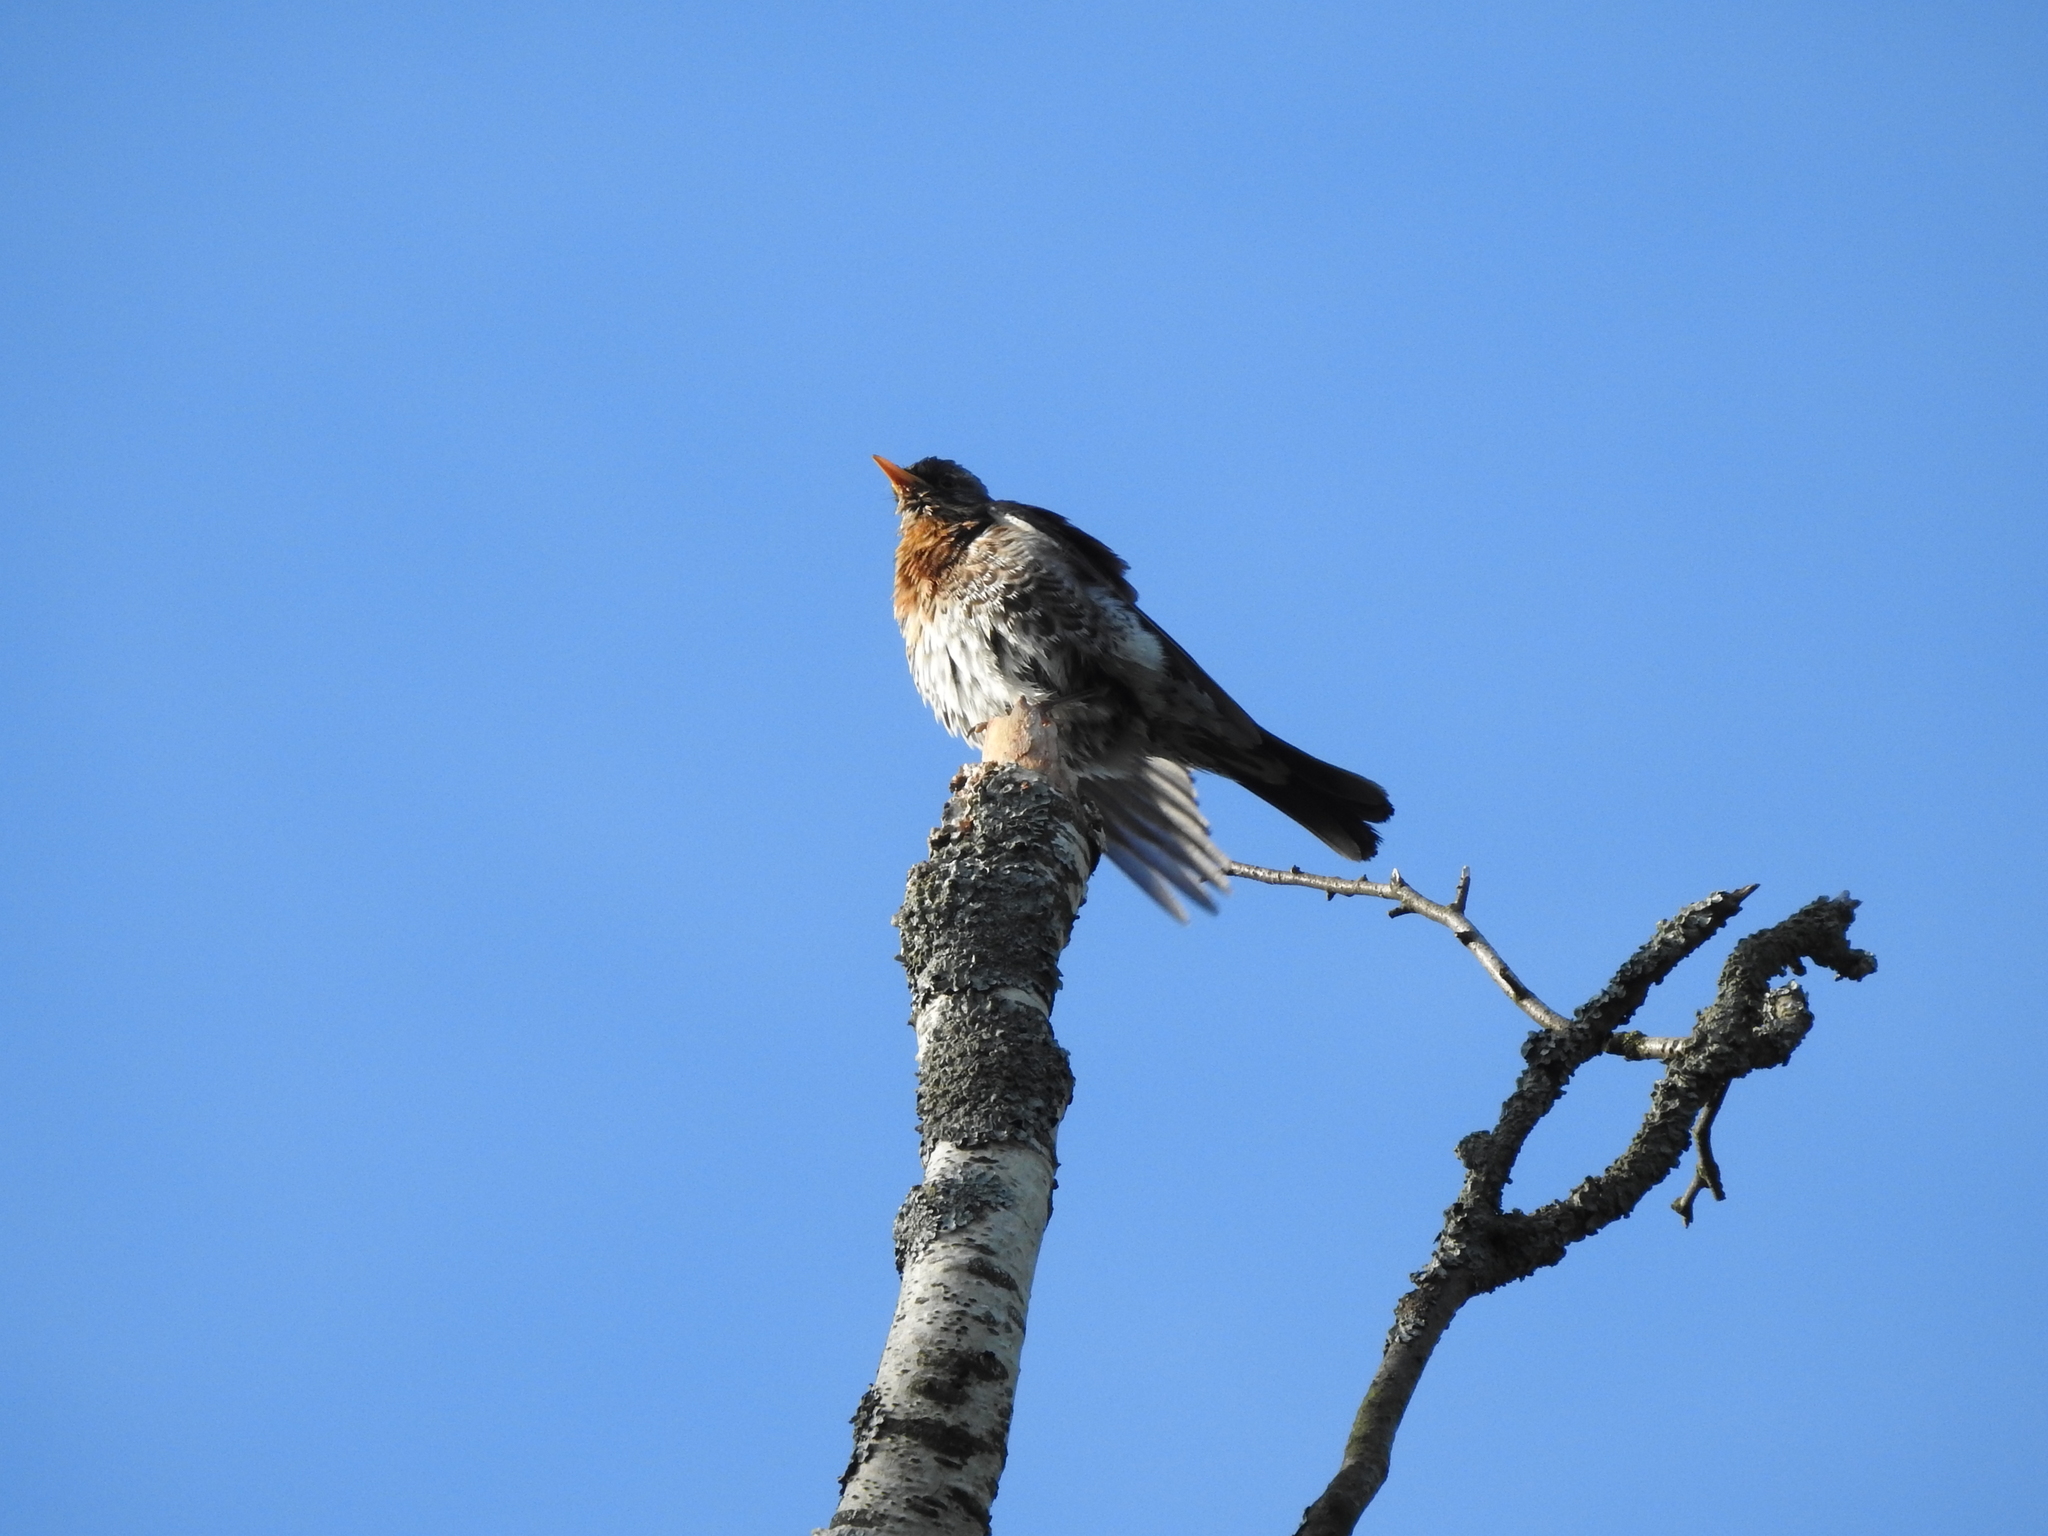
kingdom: Animalia
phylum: Chordata
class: Aves
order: Passeriformes
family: Turdidae
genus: Turdus
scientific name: Turdus pilaris
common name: Fieldfare
